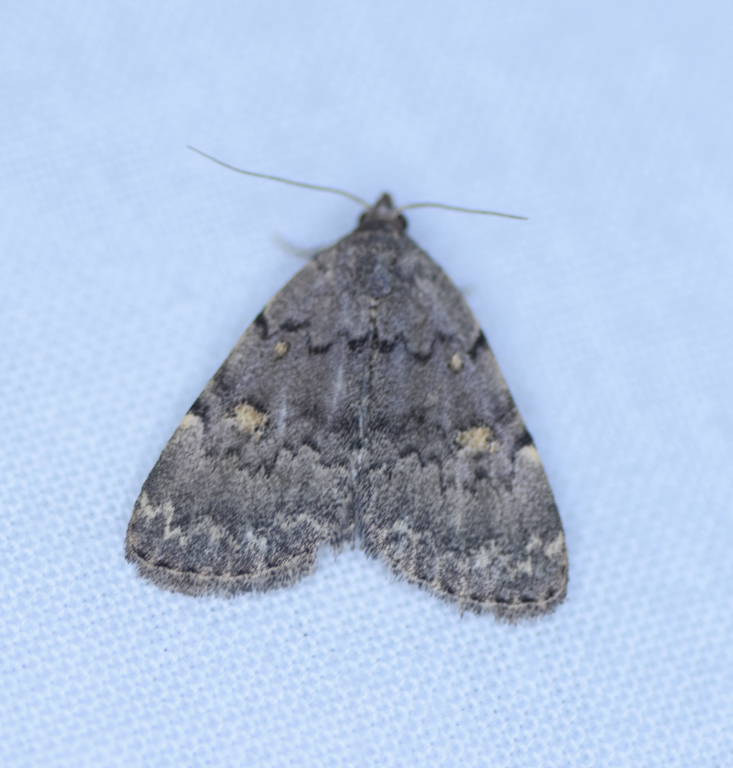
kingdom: Animalia
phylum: Arthropoda
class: Insecta
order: Lepidoptera
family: Erebidae
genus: Idia
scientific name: Idia aemula
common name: Common idia moth
